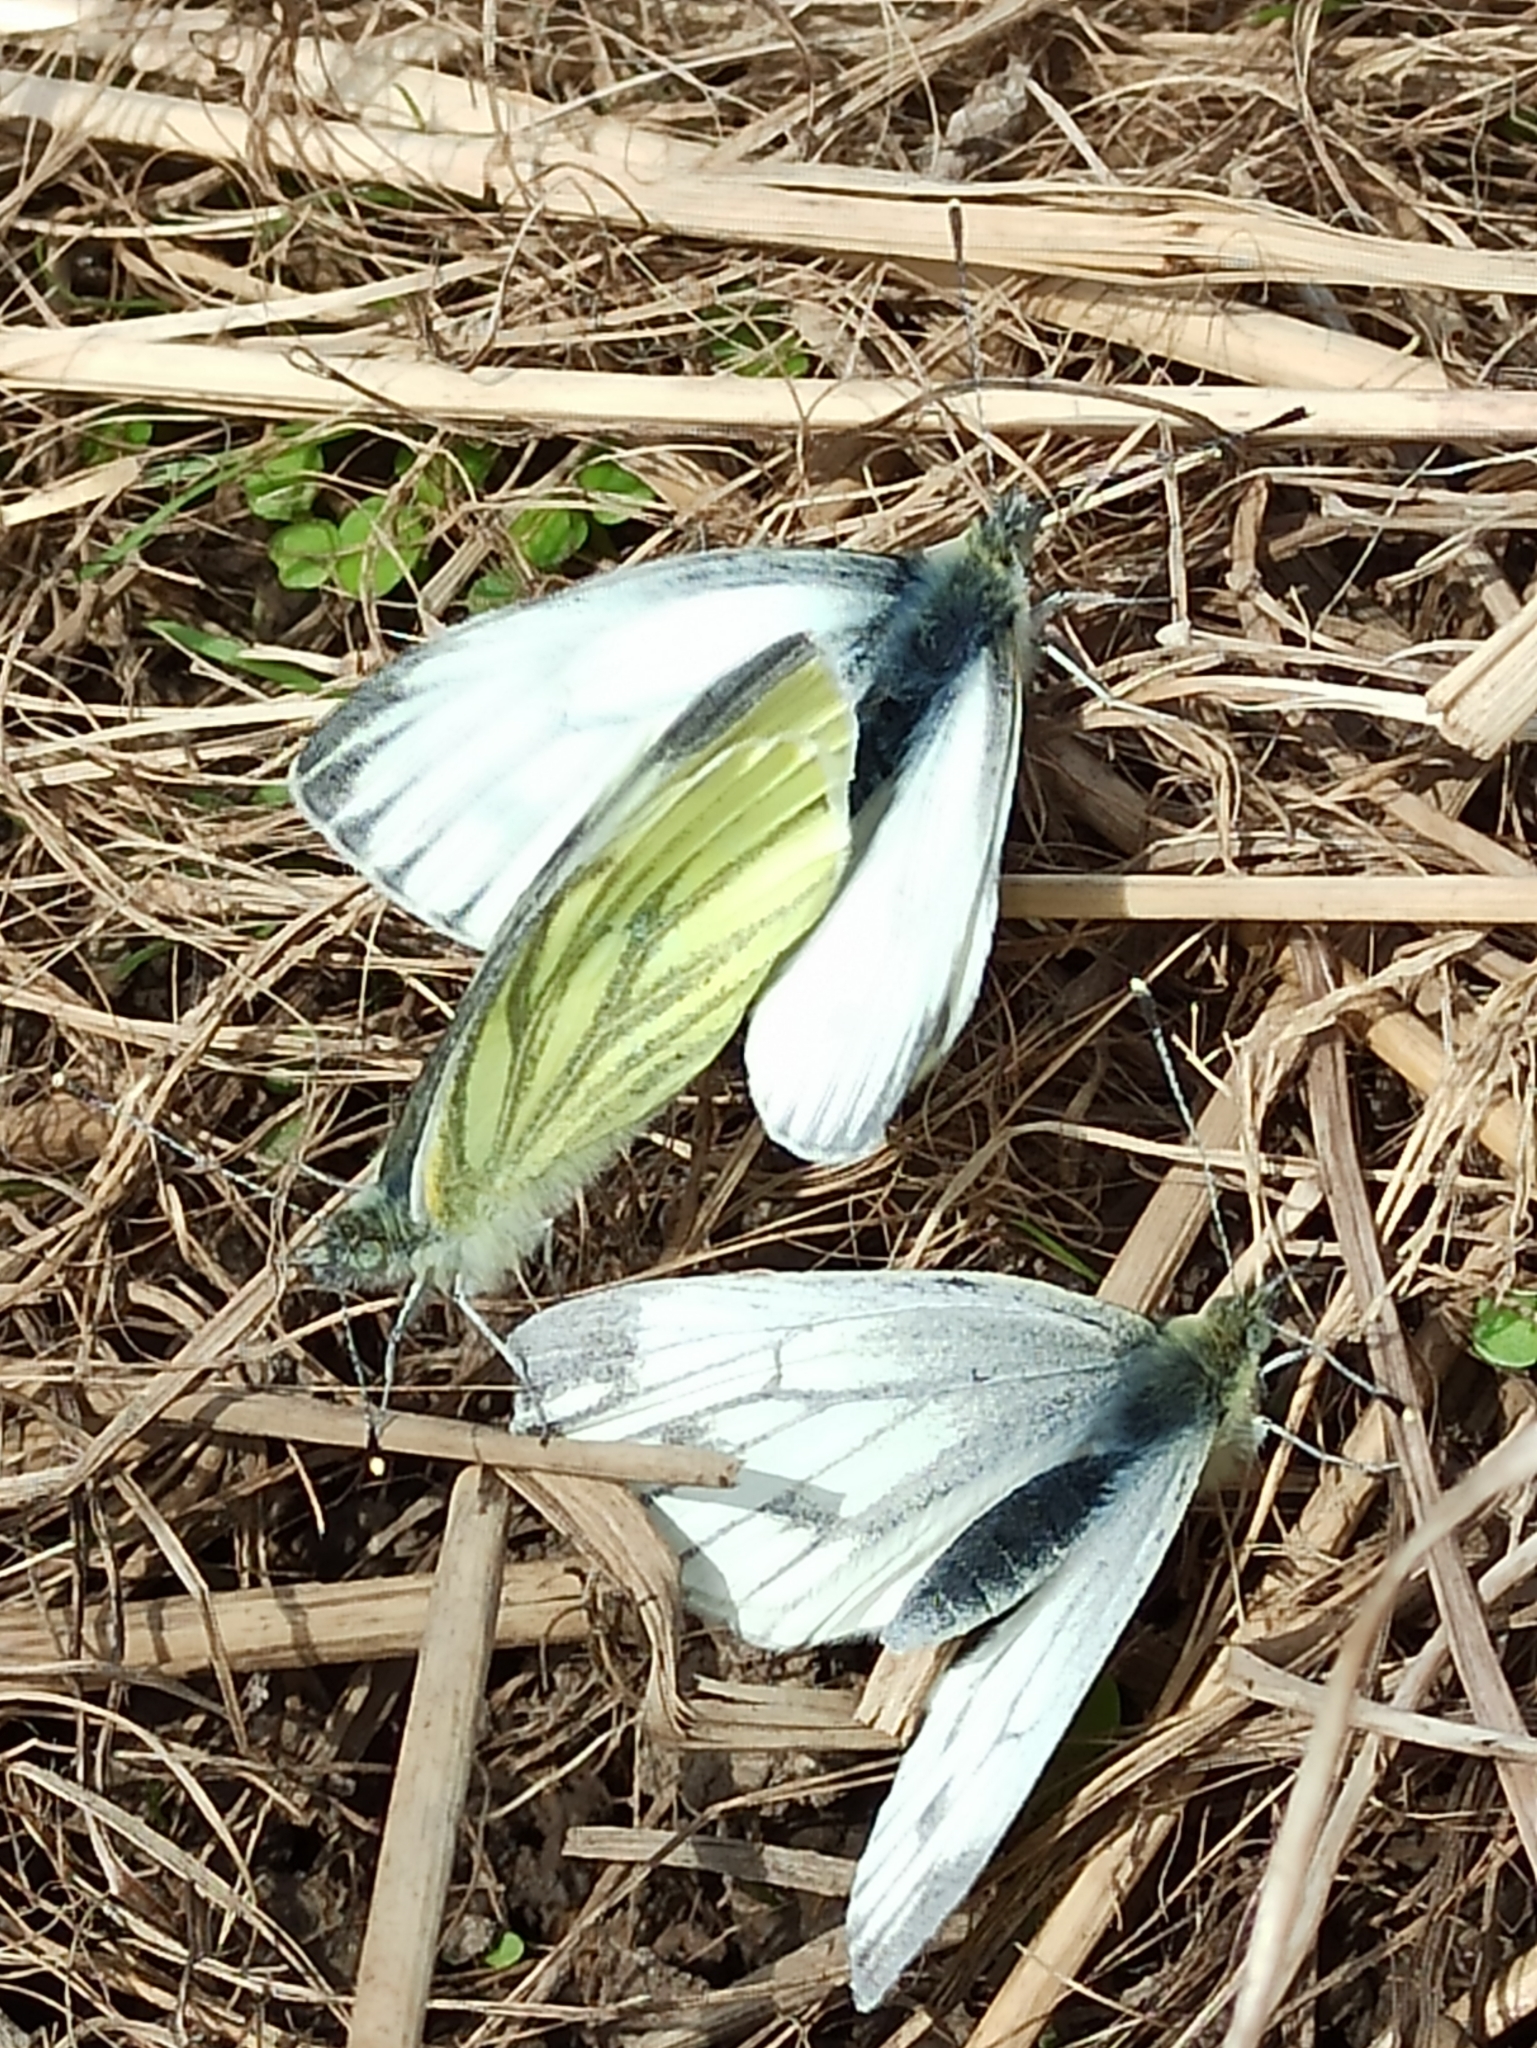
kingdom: Animalia
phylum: Arthropoda
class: Insecta
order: Lepidoptera
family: Pieridae
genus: Pieris
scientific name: Pieris napi
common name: Green-veined white
